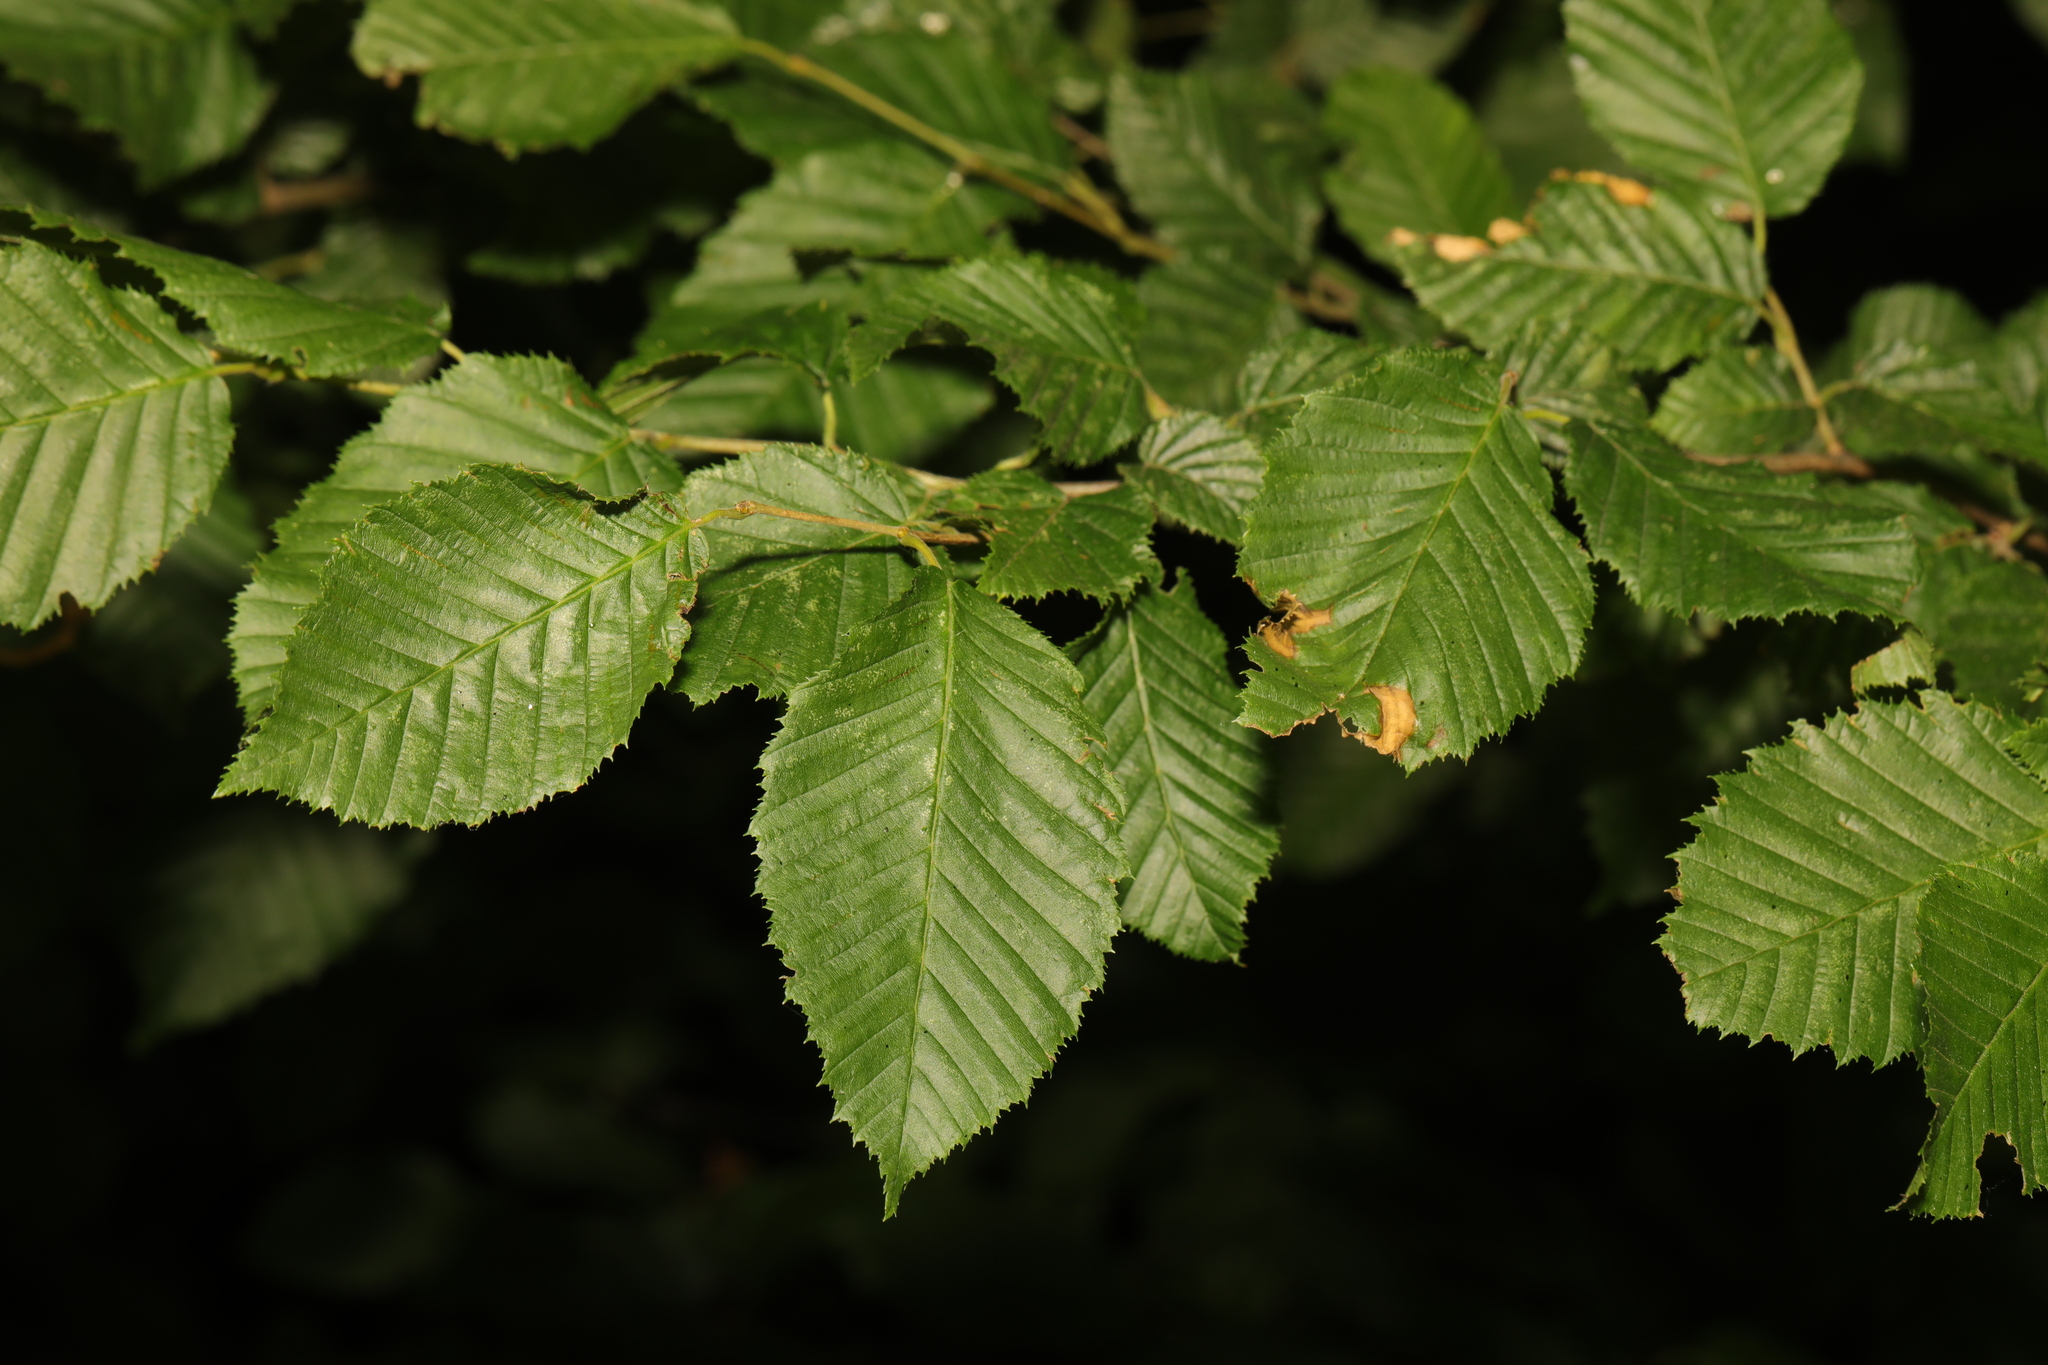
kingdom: Plantae
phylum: Tracheophyta
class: Magnoliopsida
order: Fagales
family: Betulaceae
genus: Carpinus
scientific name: Carpinus betulus
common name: Hornbeam
